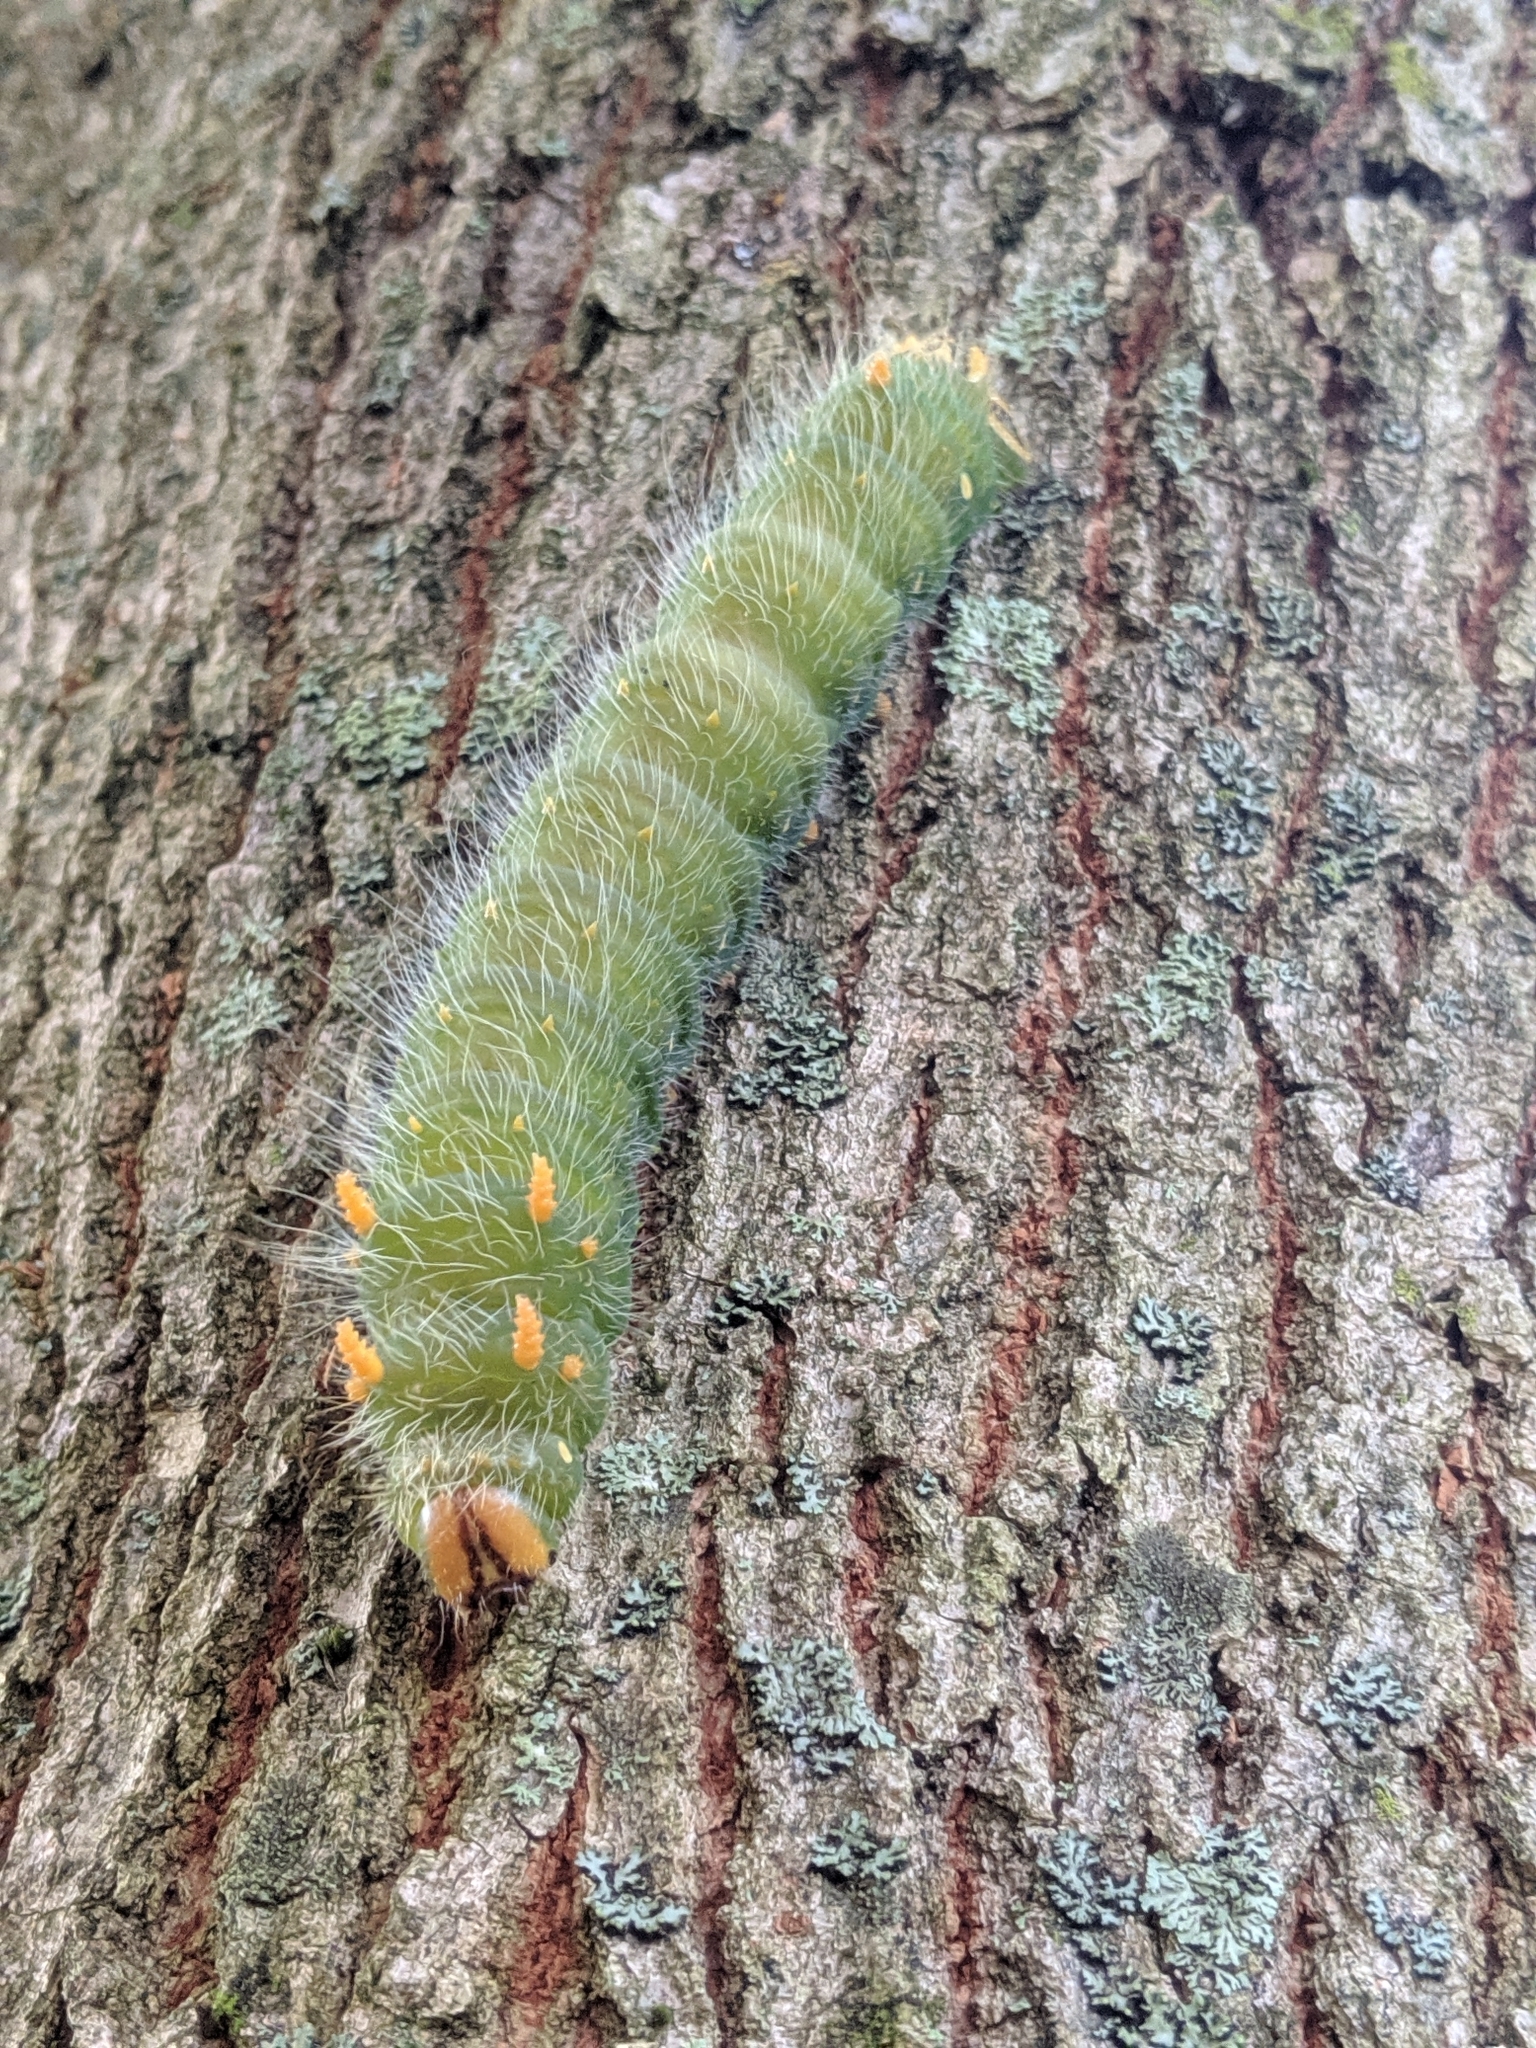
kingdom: Animalia
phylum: Arthropoda
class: Insecta
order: Lepidoptera
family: Saturniidae
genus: Eacles
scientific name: Eacles imperialis
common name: Imperial moth
